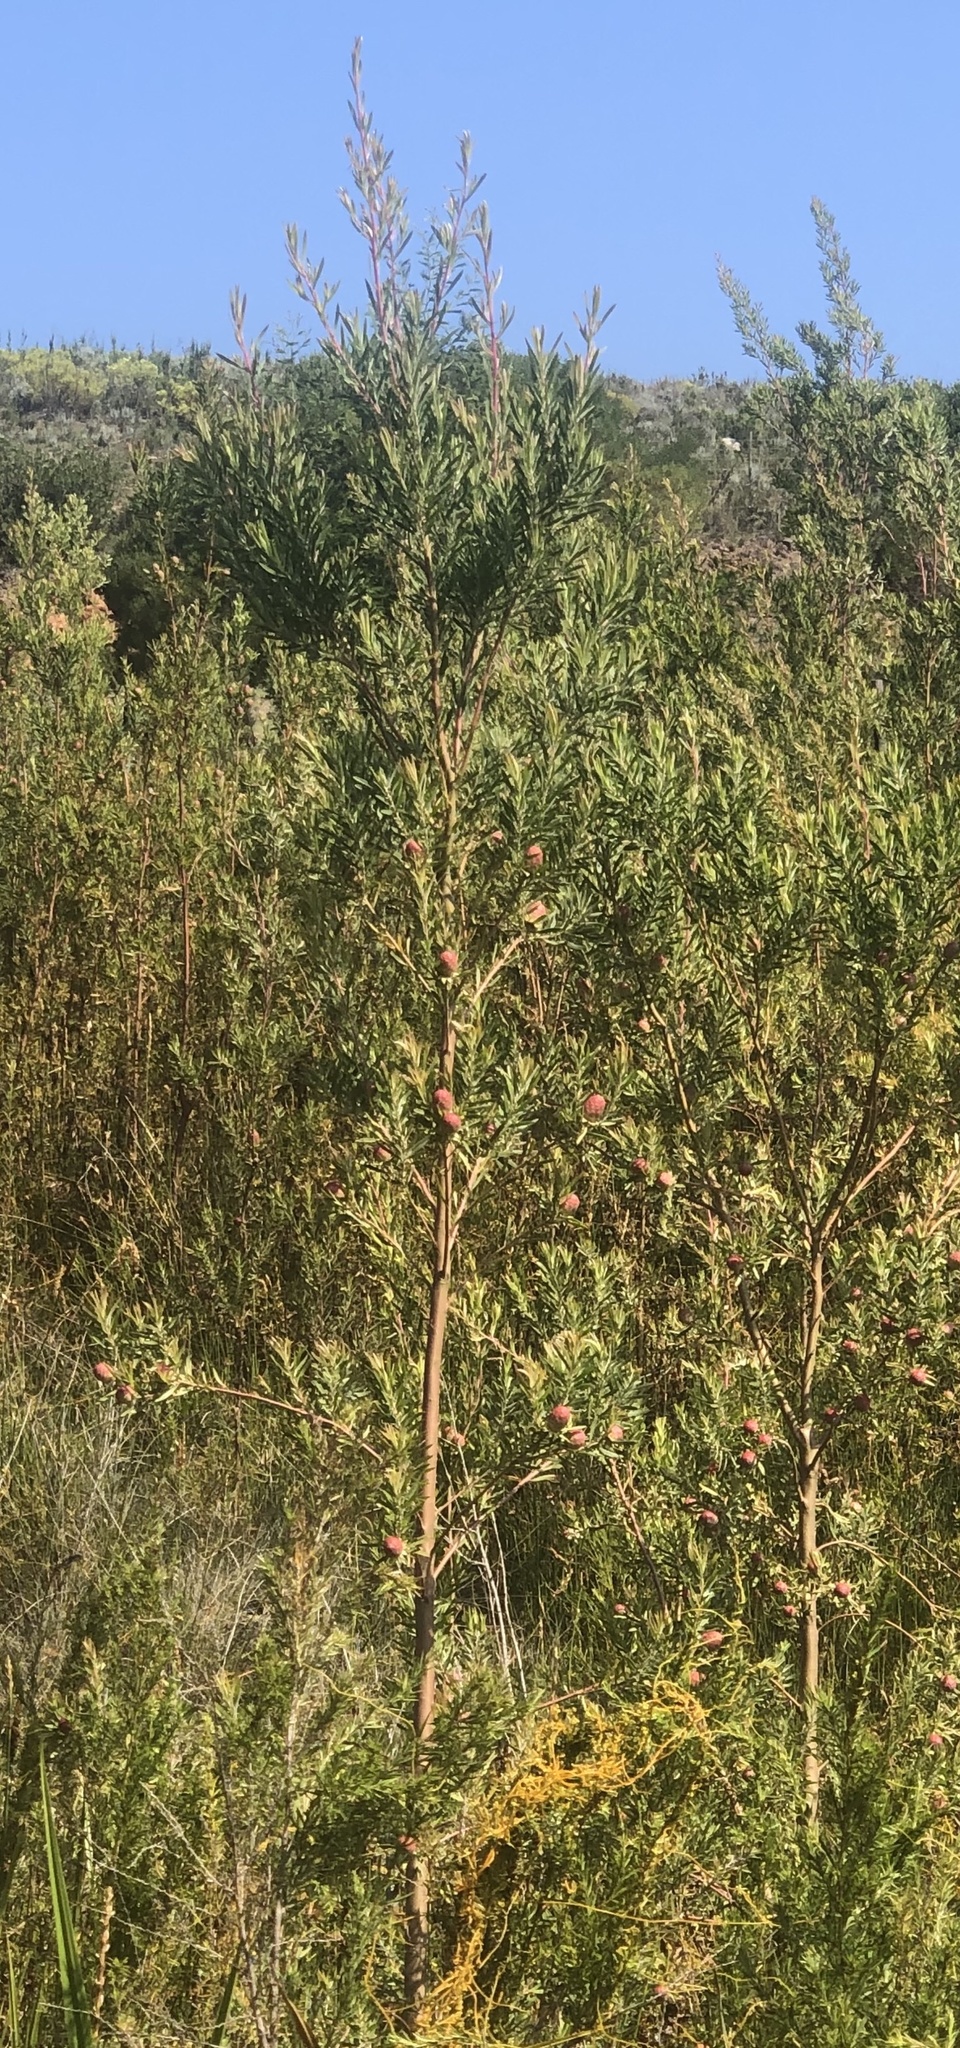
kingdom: Plantae
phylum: Tracheophyta
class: Magnoliopsida
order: Proteales
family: Proteaceae
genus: Leucadendron
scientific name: Leucadendron conicum
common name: Garden route conebush
